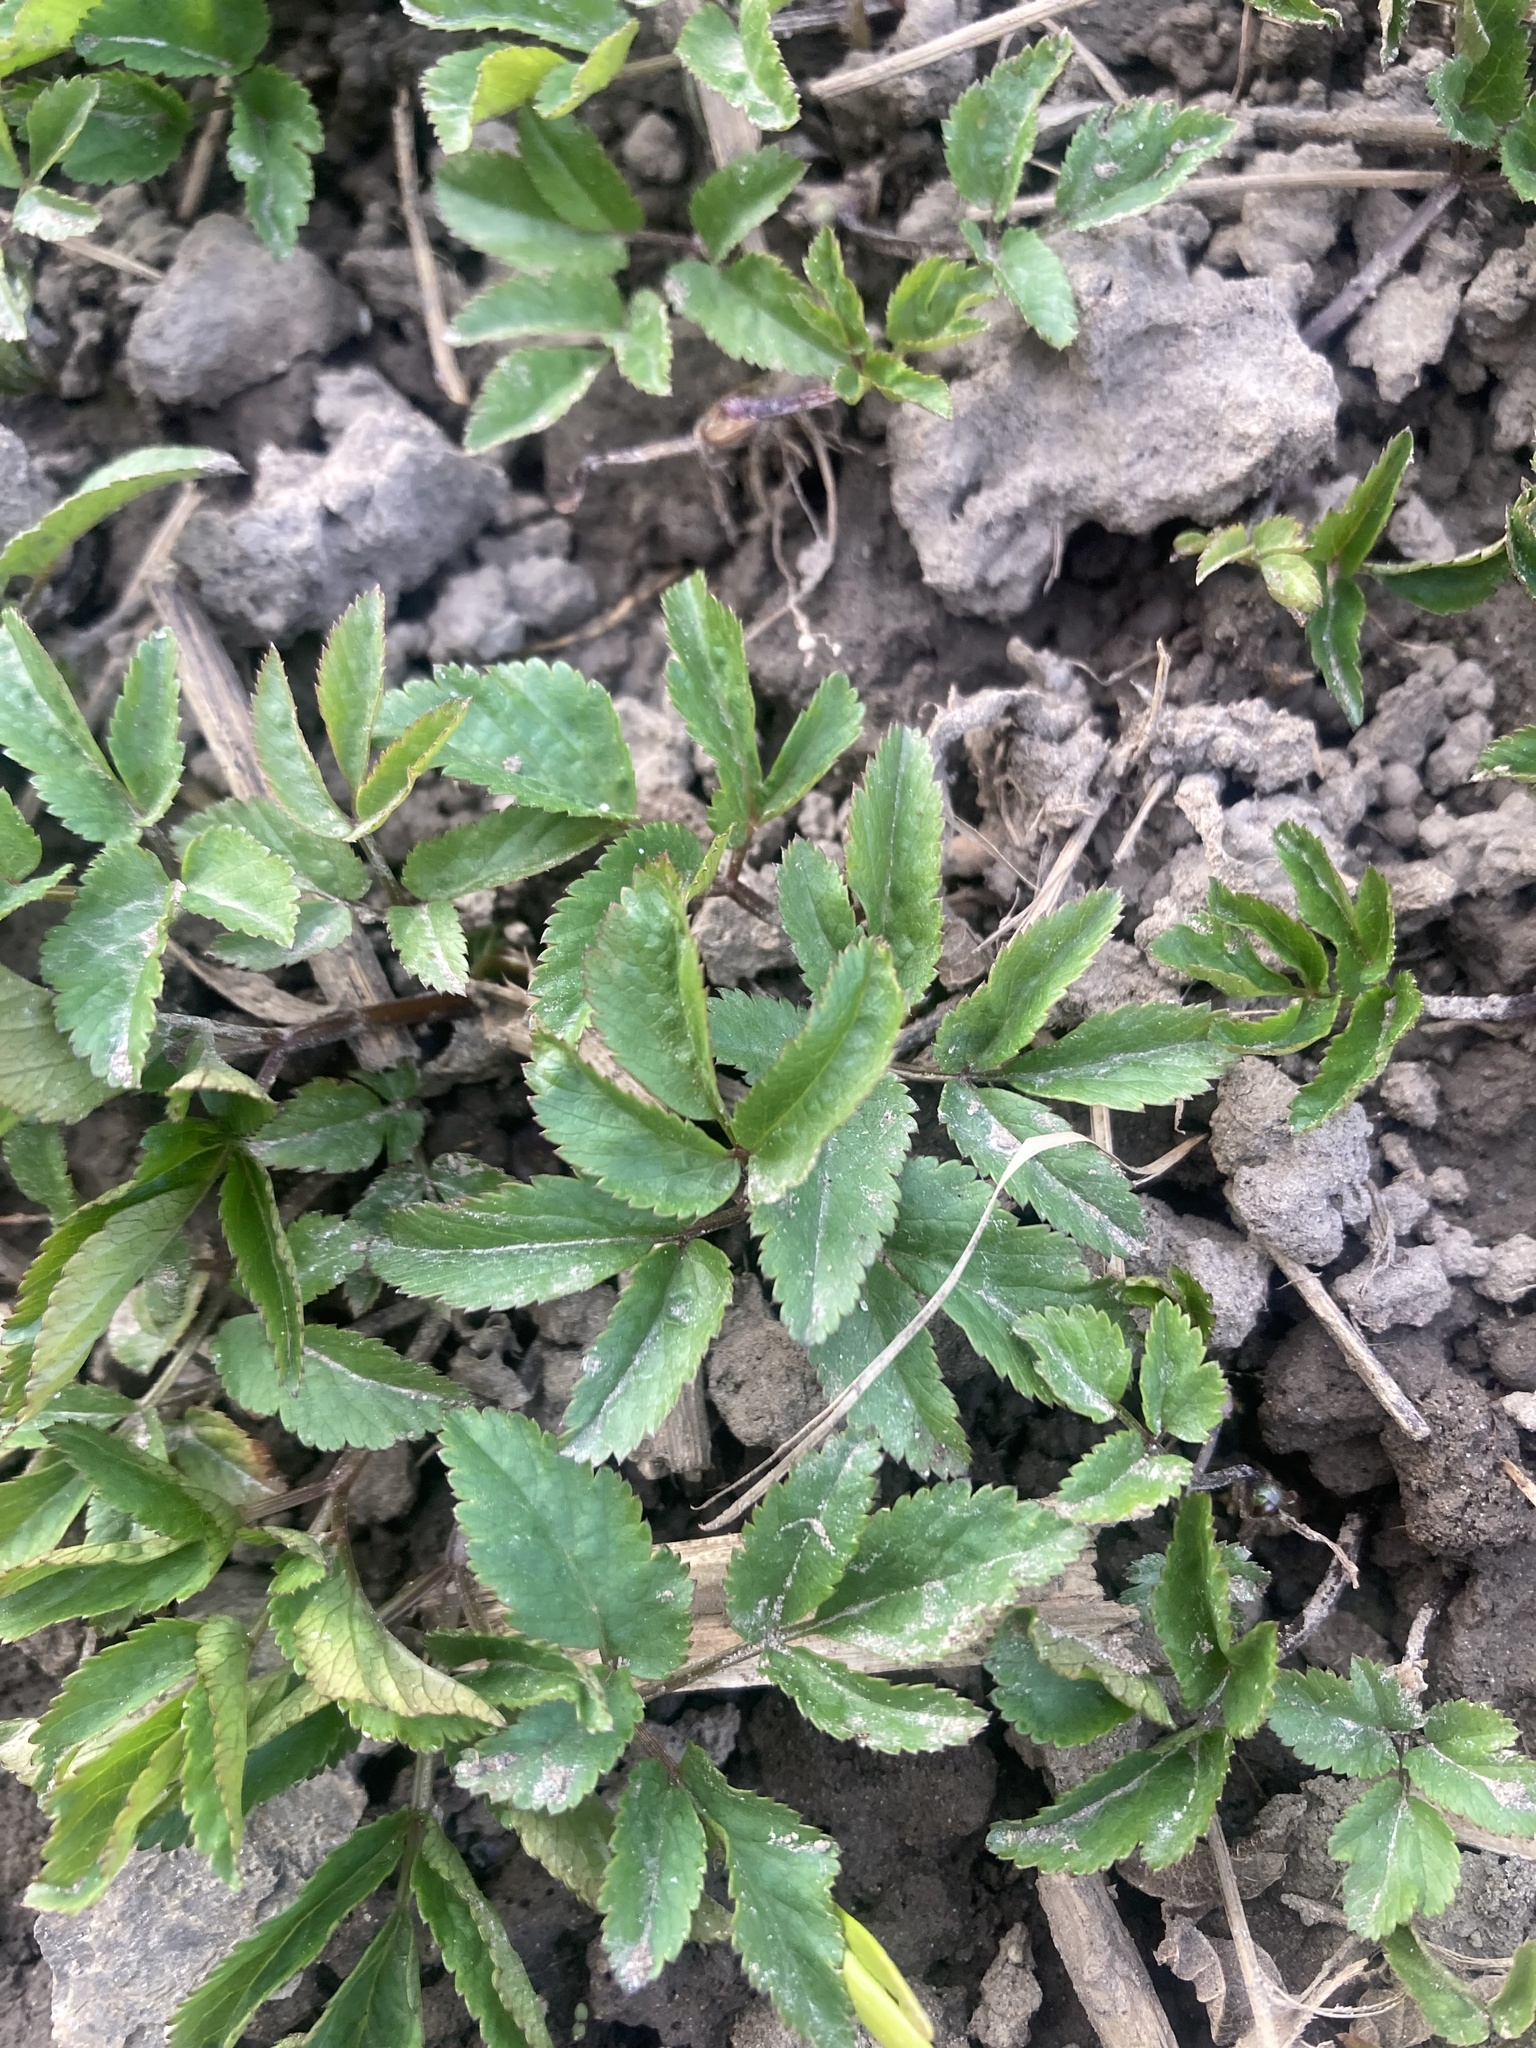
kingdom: Plantae
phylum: Tracheophyta
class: Magnoliopsida
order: Apiales
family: Apiaceae
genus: Aegopodium
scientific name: Aegopodium podagraria
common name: Ground-elder
